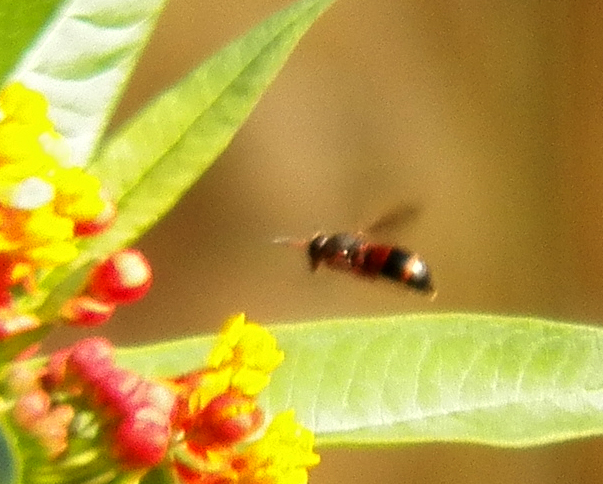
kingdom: Animalia
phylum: Arthropoda
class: Insecta
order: Hymenoptera
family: Eumenidae
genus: Pachodynerus
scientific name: Pachodynerus erynnis
